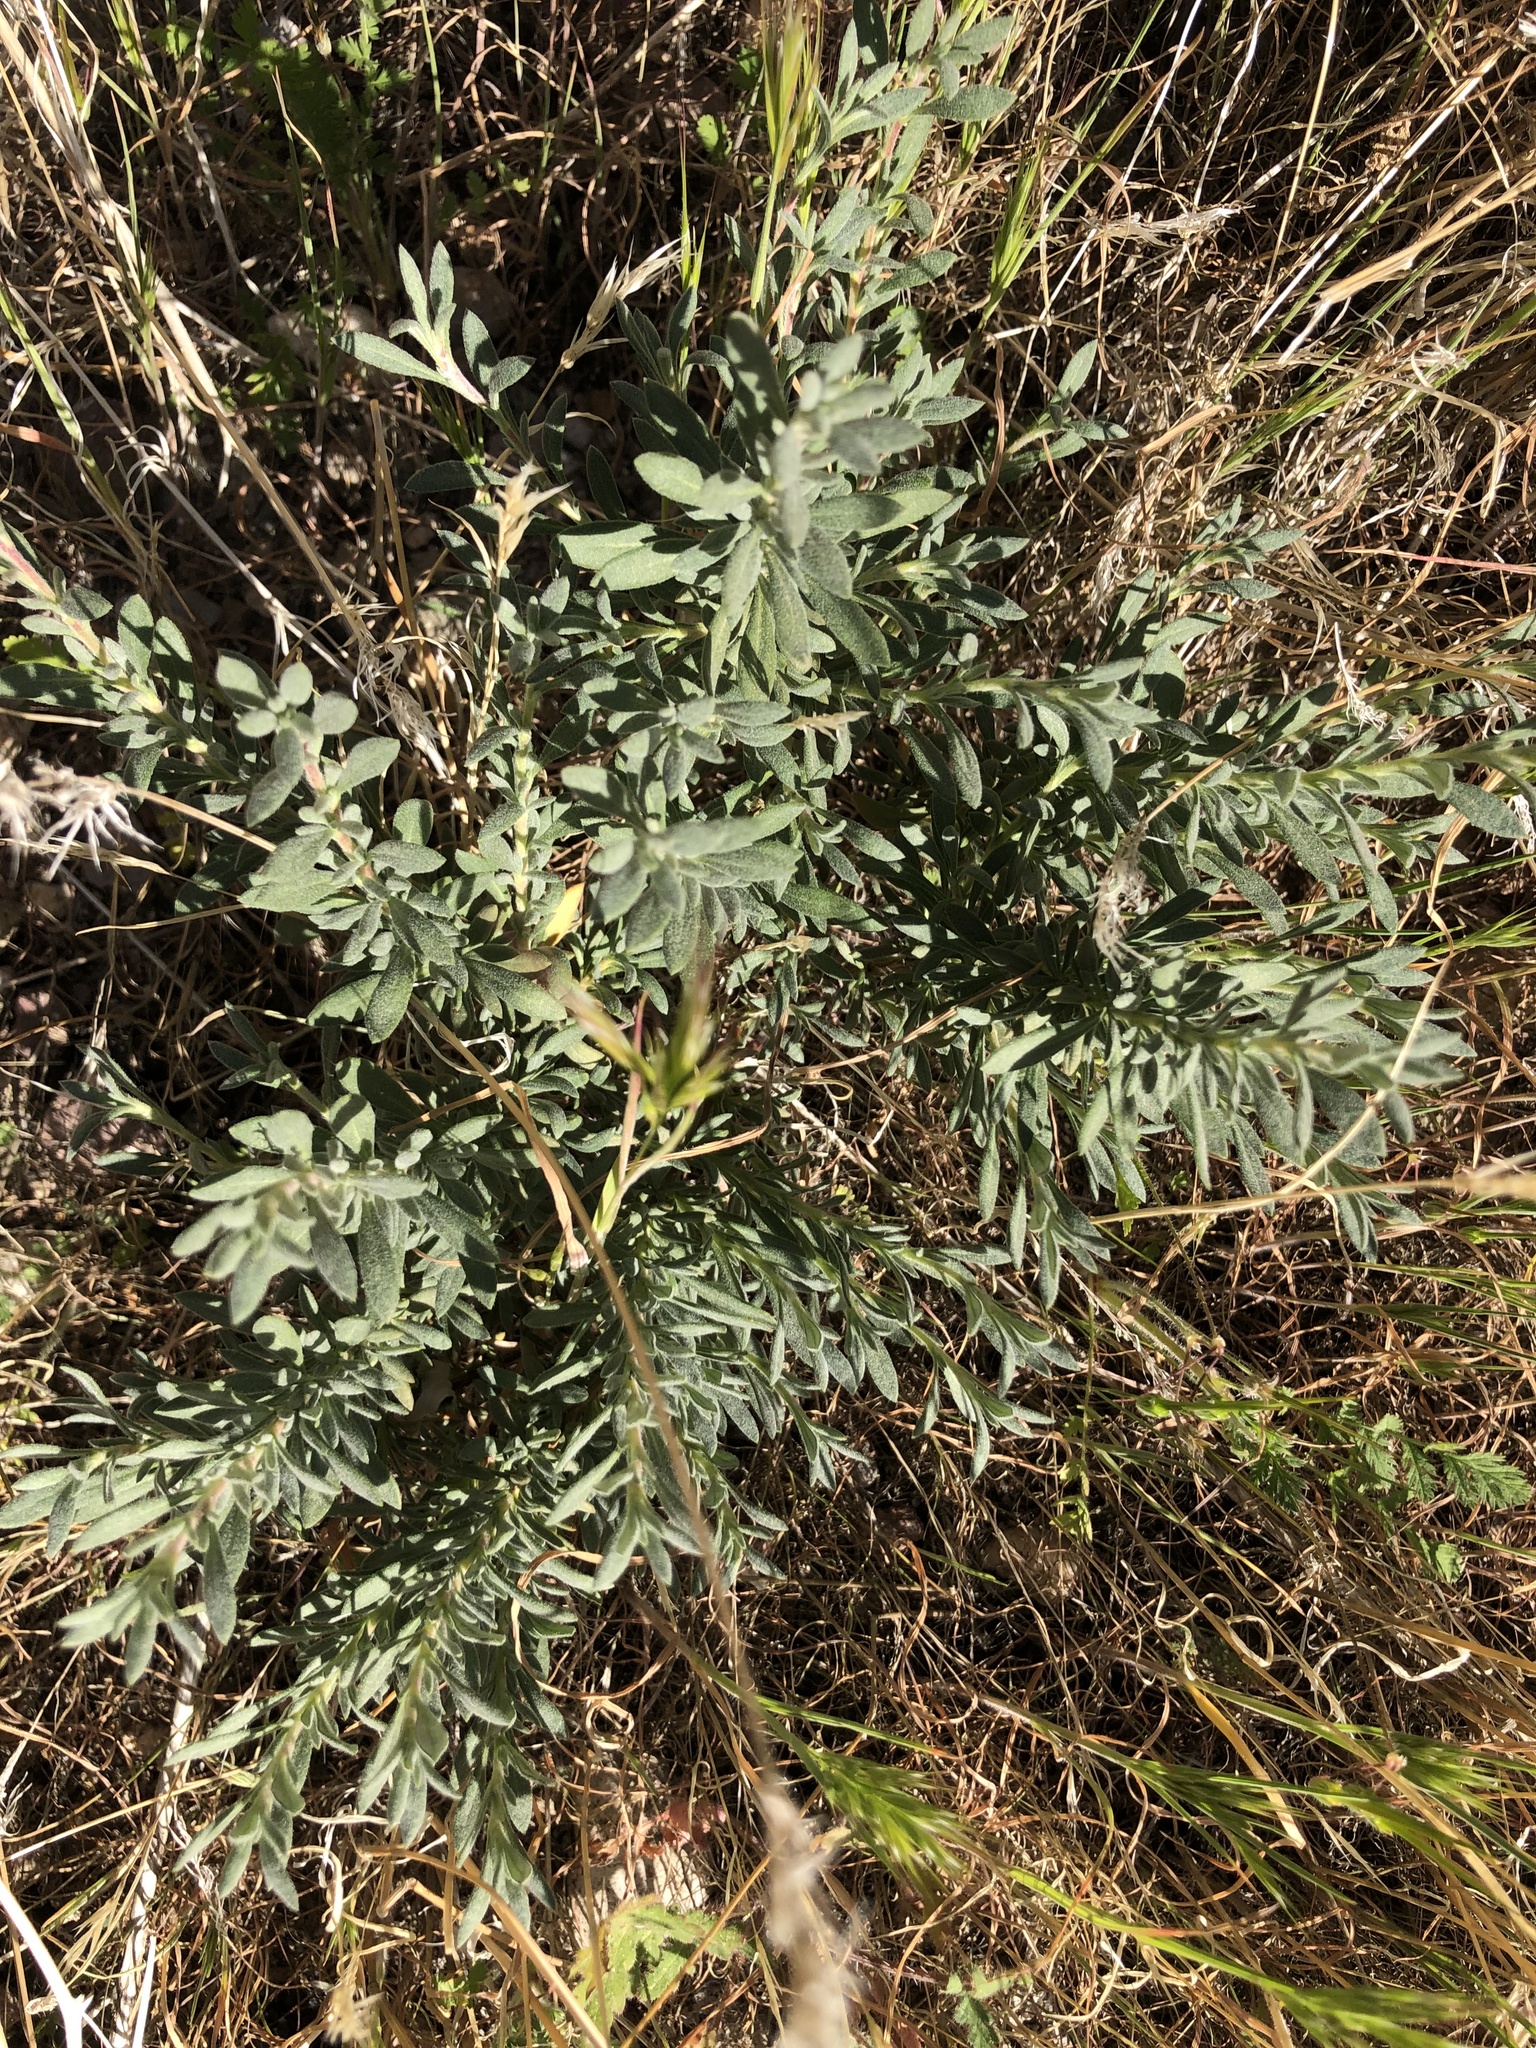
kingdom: Plantae
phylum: Tracheophyta
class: Magnoliopsida
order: Caryophyllales
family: Amaranthaceae
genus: Bassia
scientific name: Bassia hyssopifolia
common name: Fivehorn smotherweed
